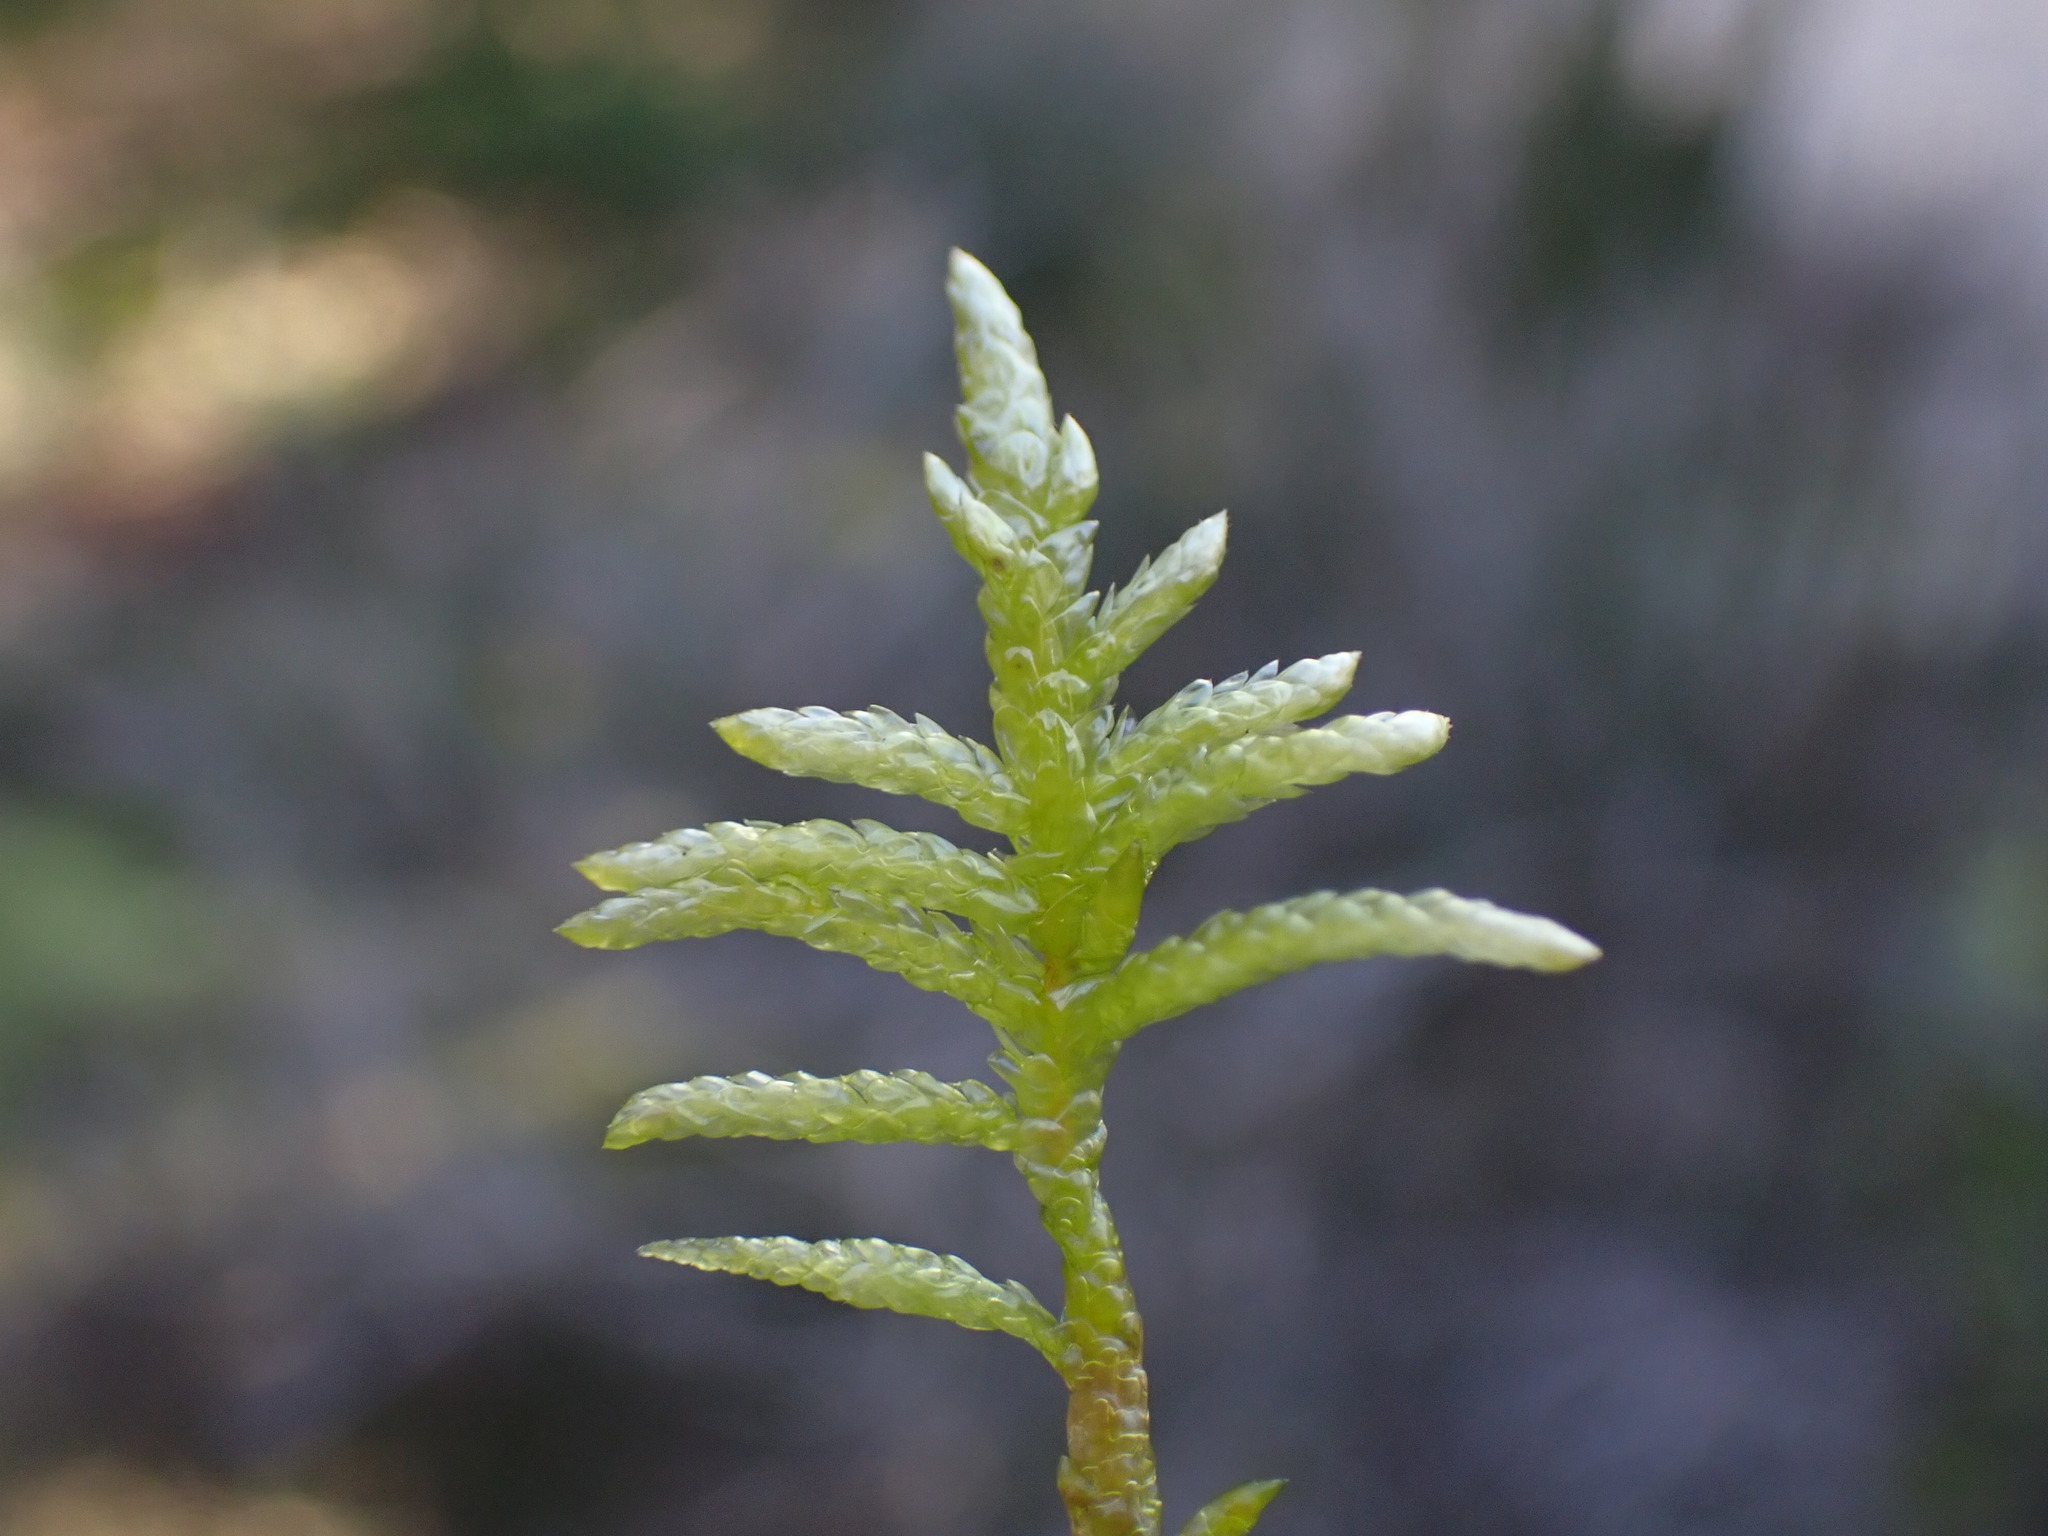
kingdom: Plantae
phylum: Bryophyta
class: Bryopsida
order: Hypnales
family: Brachytheciaceae
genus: Pseudoscleropodium
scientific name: Pseudoscleropodium purum
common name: Neat feather-moss
